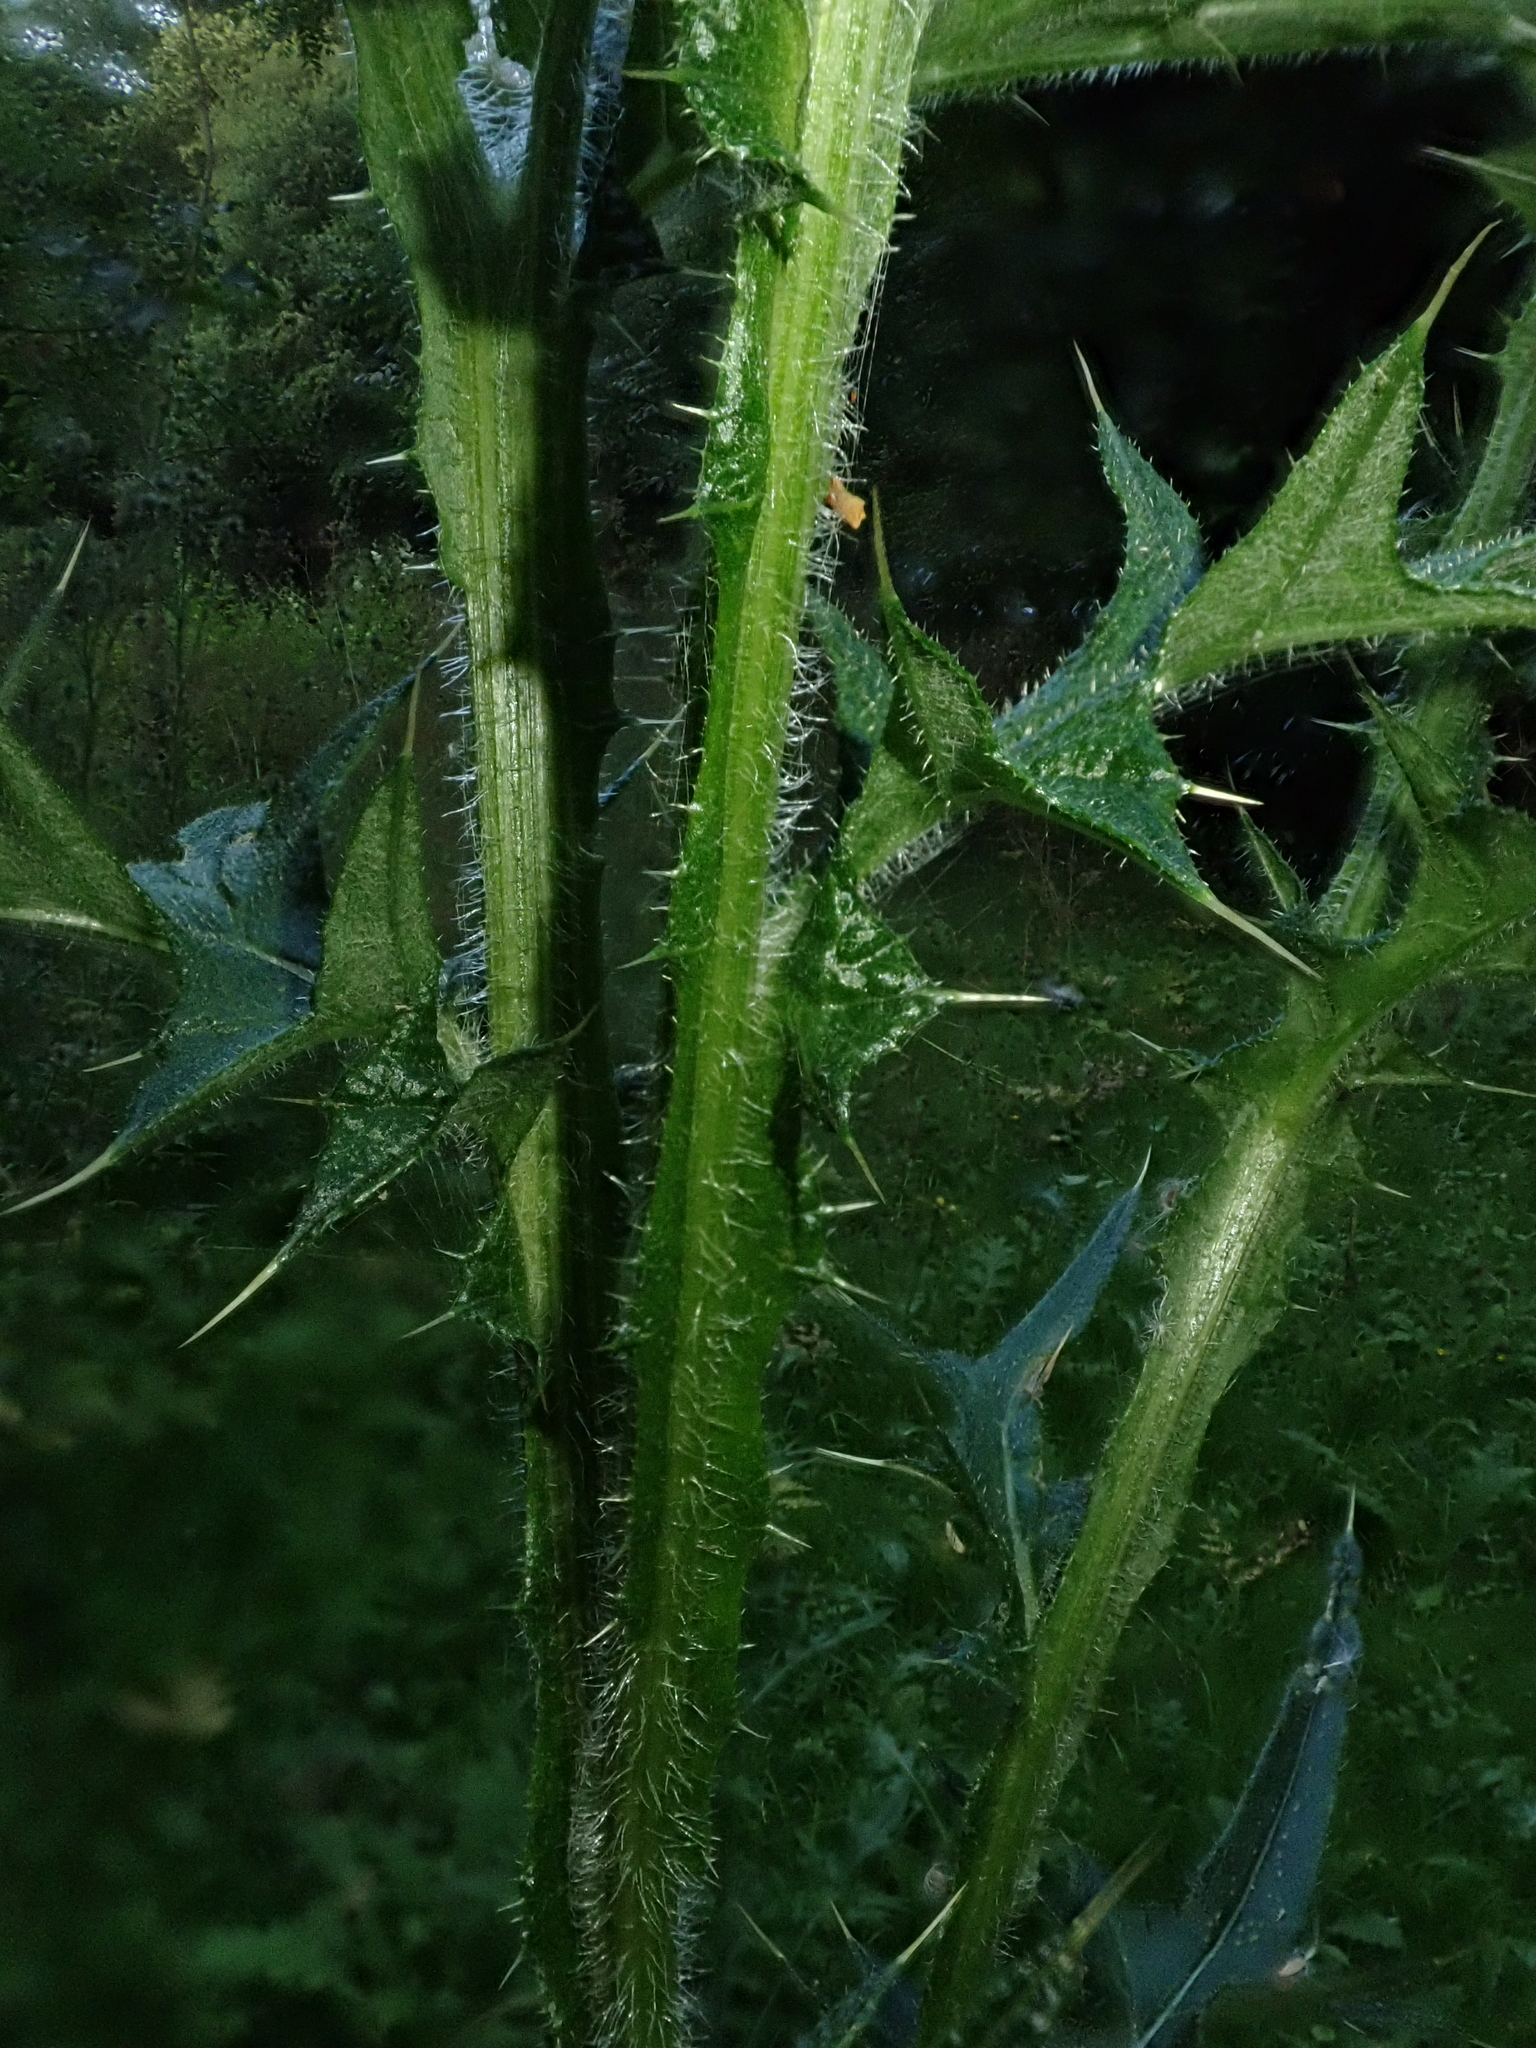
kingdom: Plantae
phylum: Tracheophyta
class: Magnoliopsida
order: Asterales
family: Asteraceae
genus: Cirsium
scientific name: Cirsium vulgare
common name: Bull thistle
